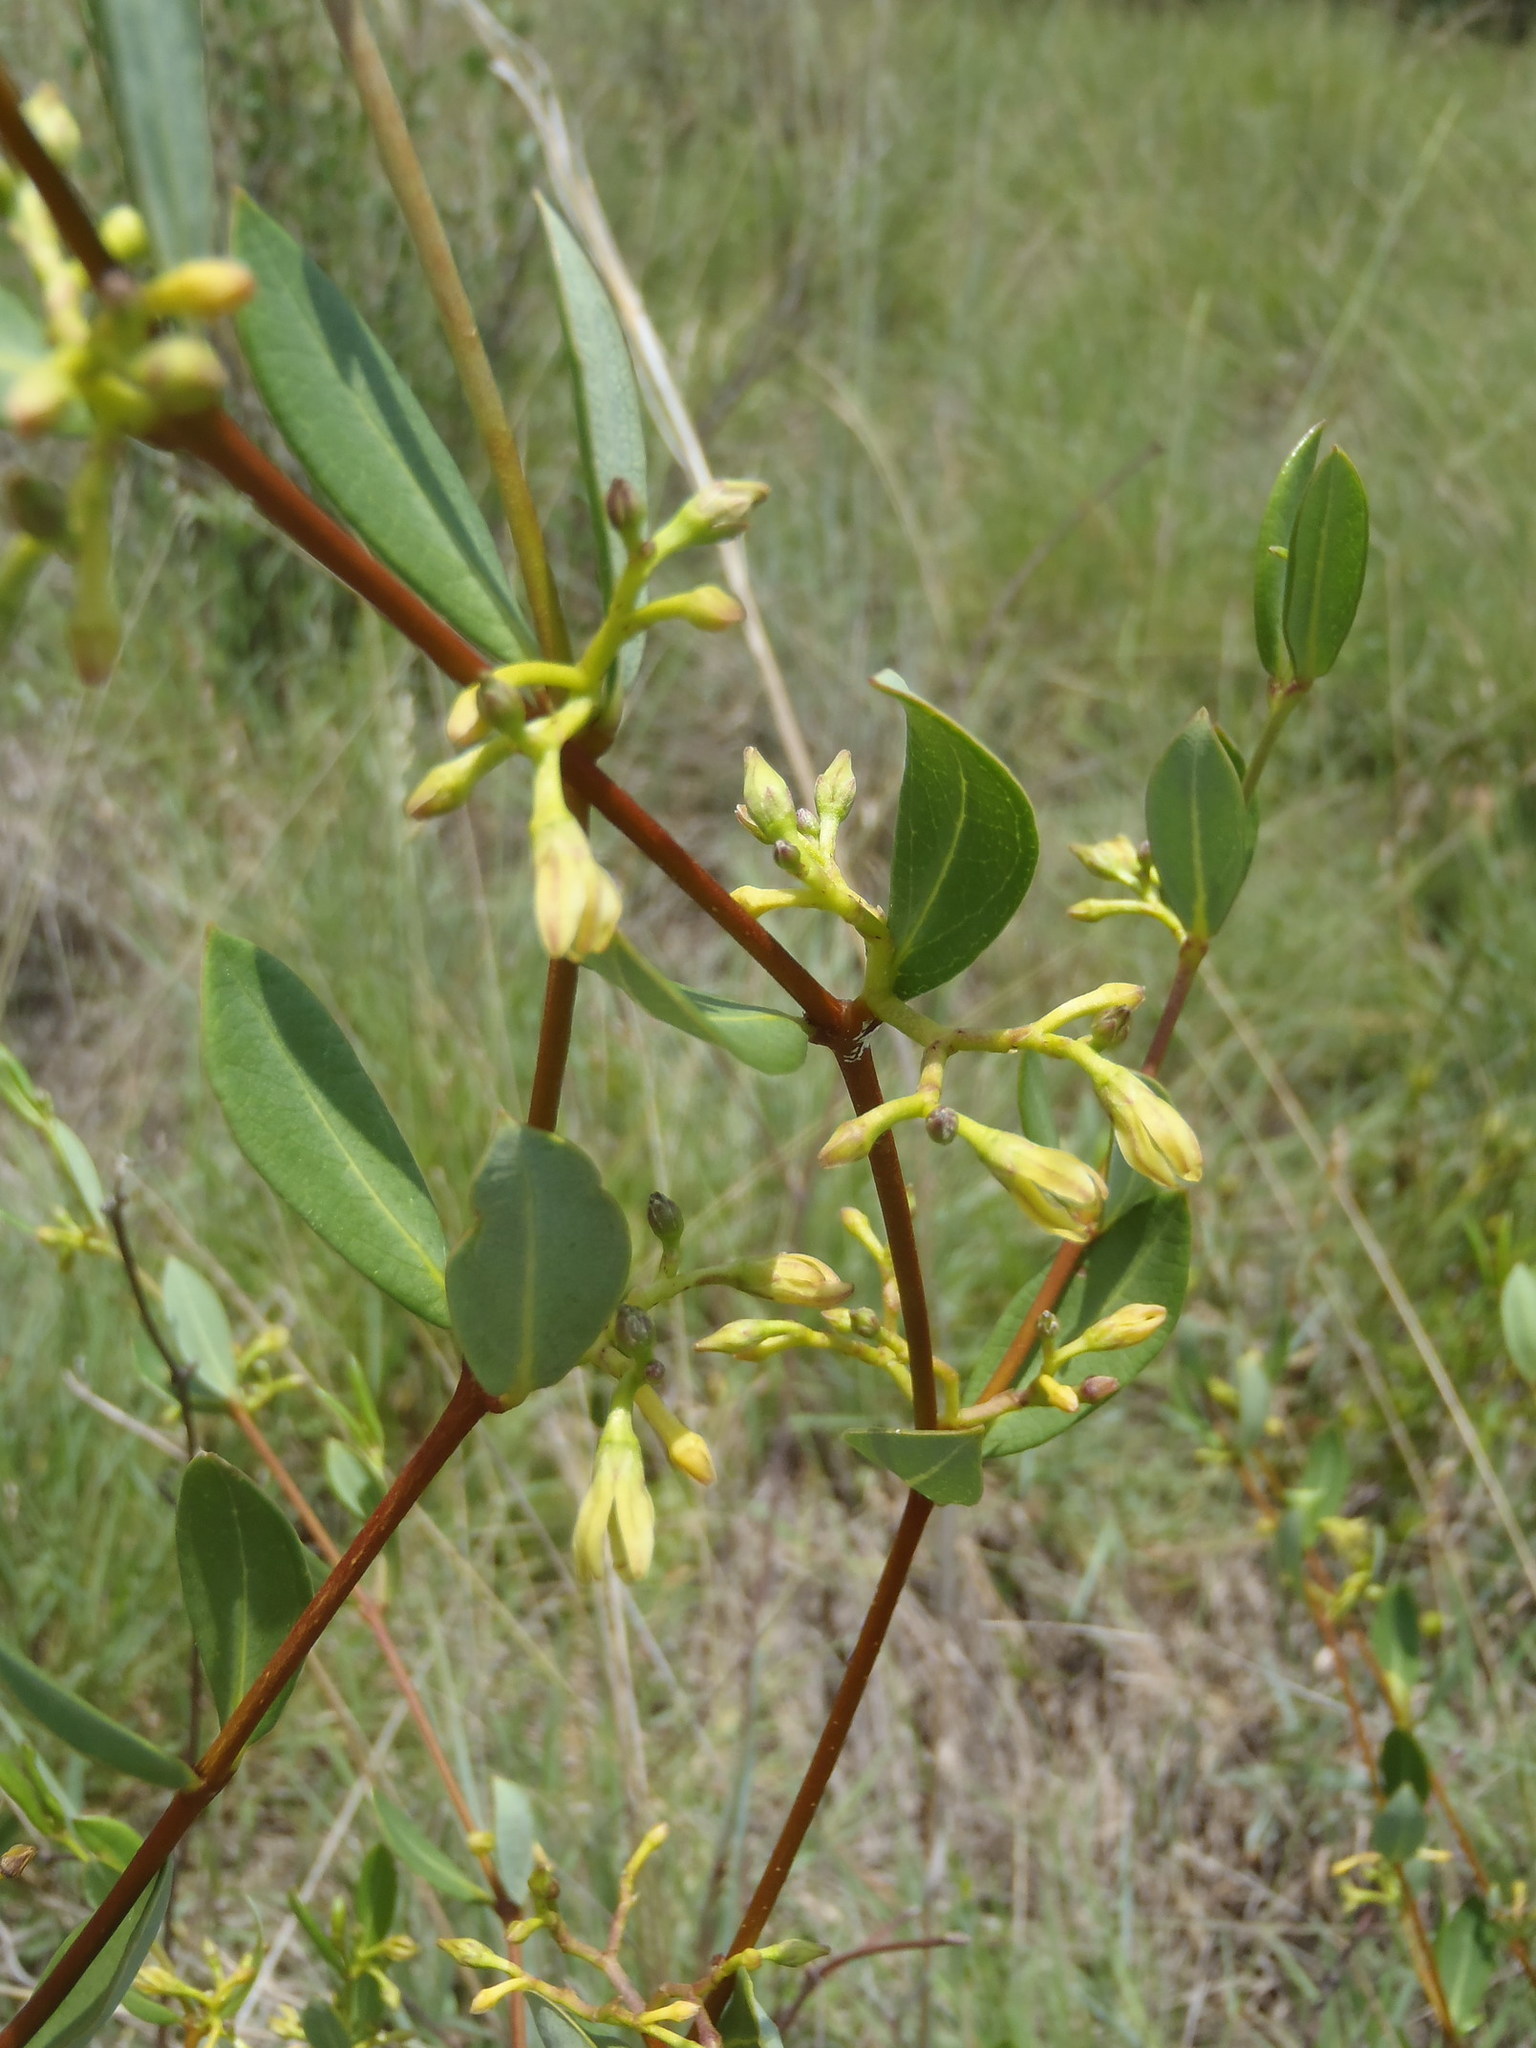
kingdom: Plantae
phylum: Tracheophyta
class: Magnoliopsida
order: Gentianales
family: Apocynaceae
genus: Cryptolepis
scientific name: Cryptolepis oblongifolia
